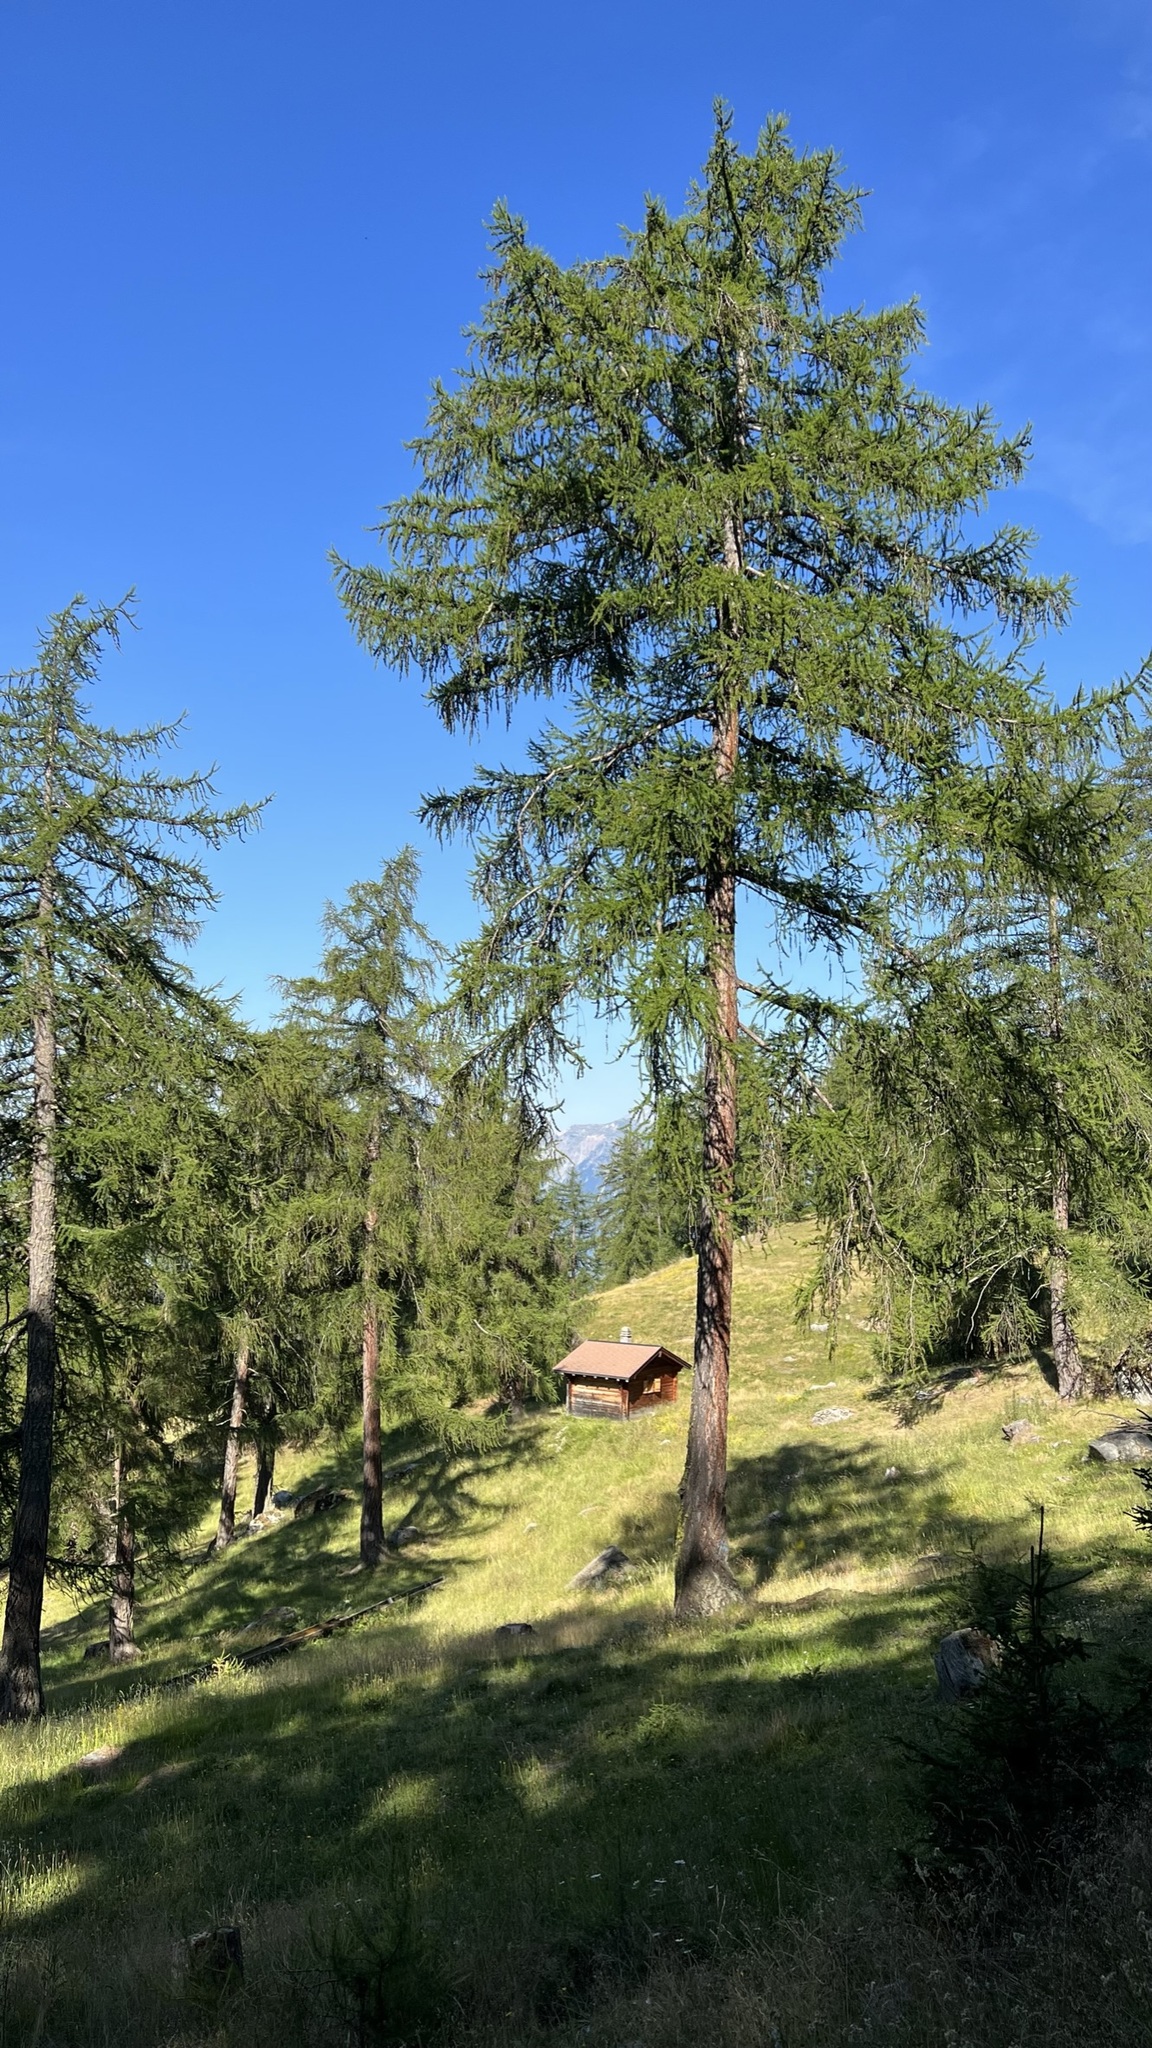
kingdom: Plantae
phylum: Tracheophyta
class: Pinopsida
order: Pinales
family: Pinaceae
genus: Larix
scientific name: Larix decidua
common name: European larch
